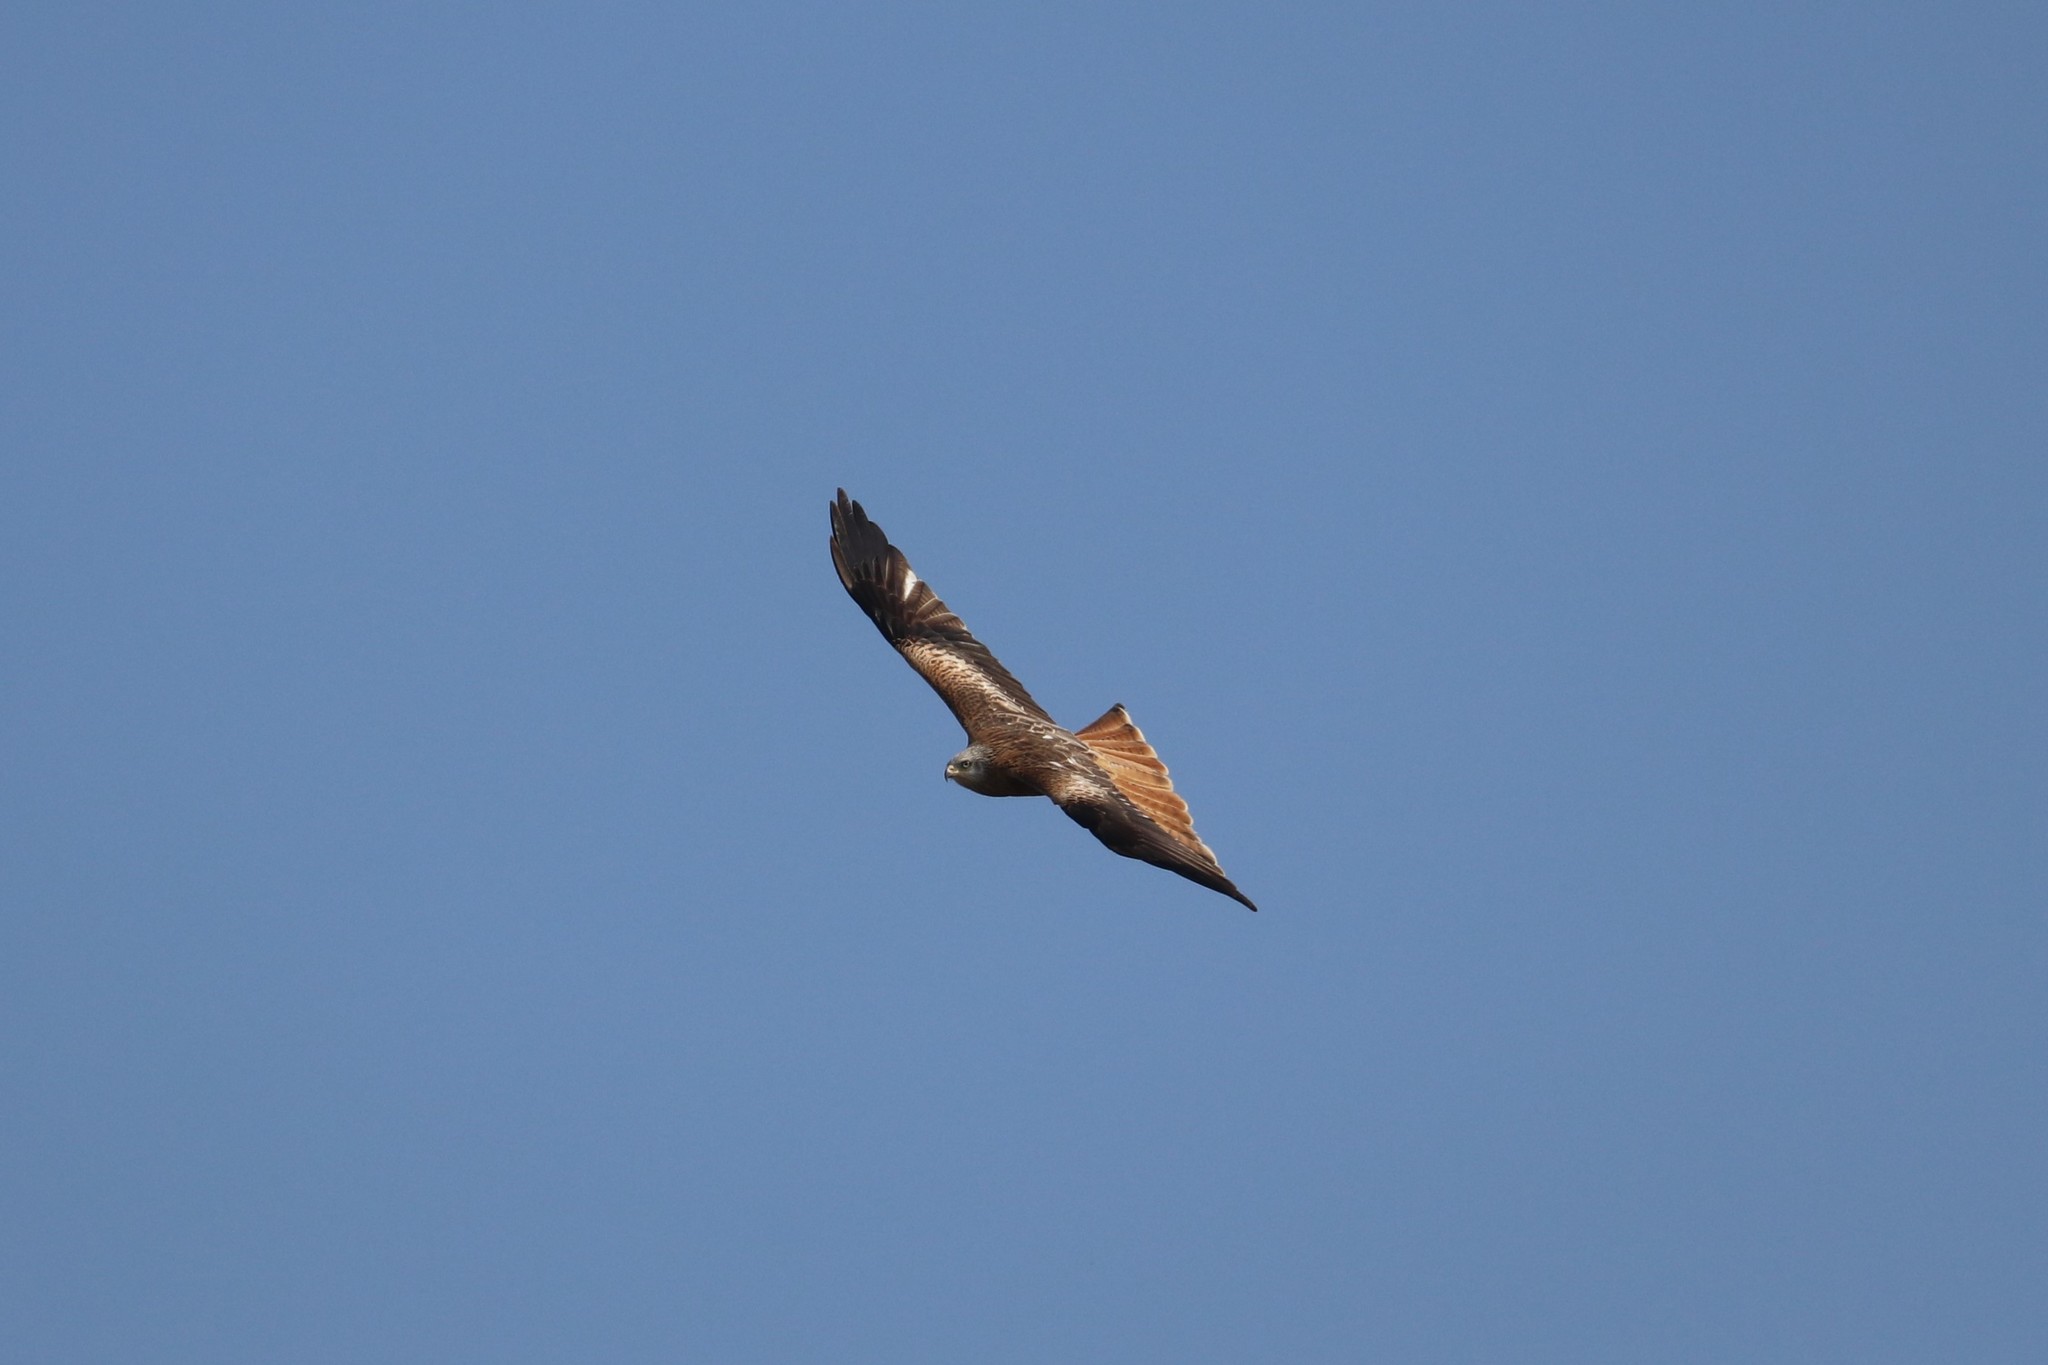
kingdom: Animalia
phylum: Chordata
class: Aves
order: Accipitriformes
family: Accipitridae
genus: Milvus
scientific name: Milvus milvus
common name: Red kite
